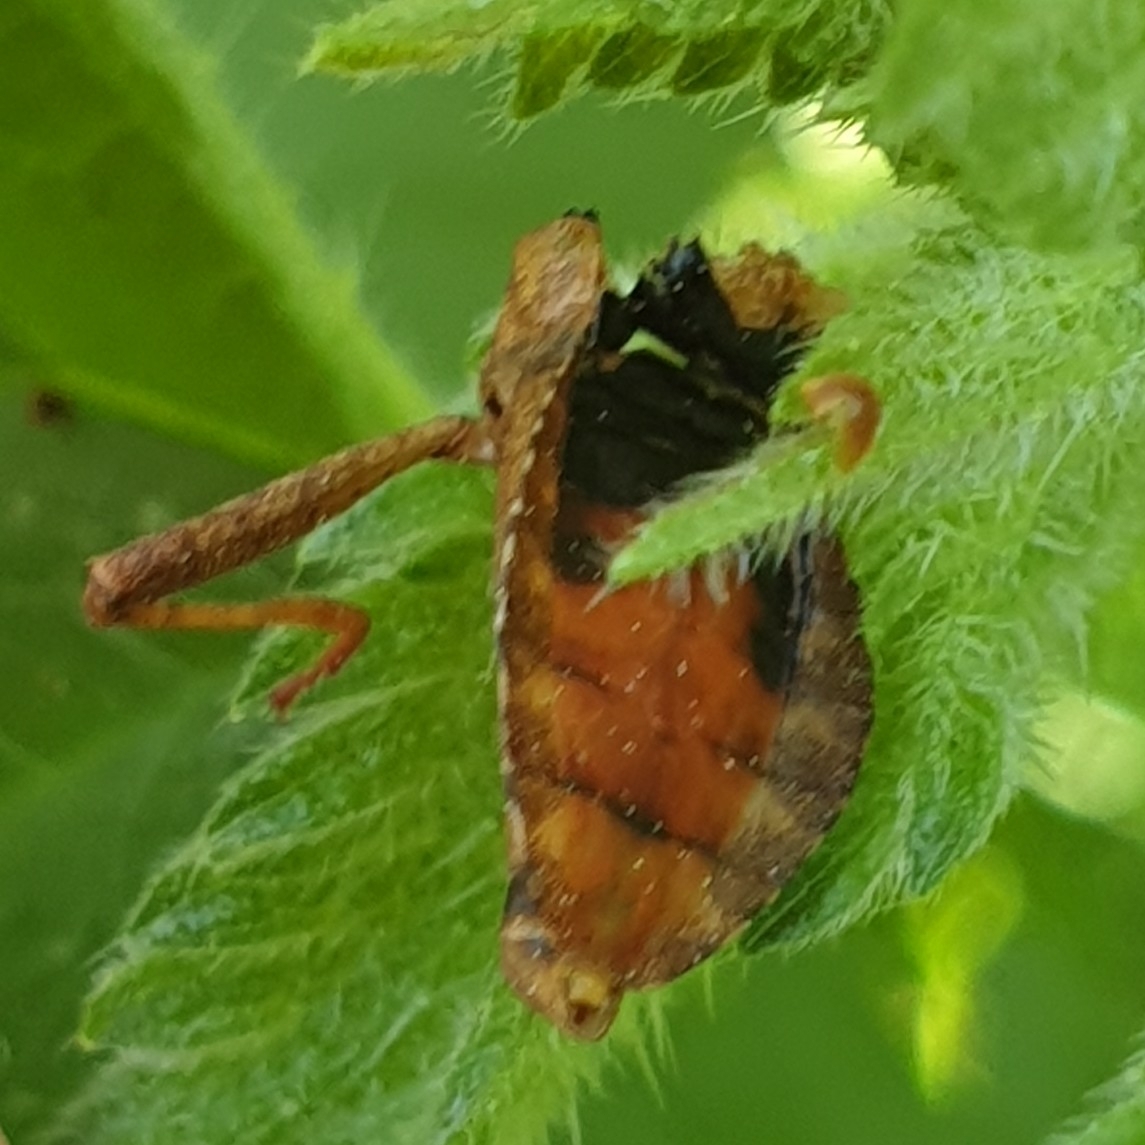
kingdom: Animalia
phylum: Arthropoda
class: Insecta
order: Hemiptera
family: Coreidae
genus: Coreus
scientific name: Coreus marginatus
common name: Dock bug
